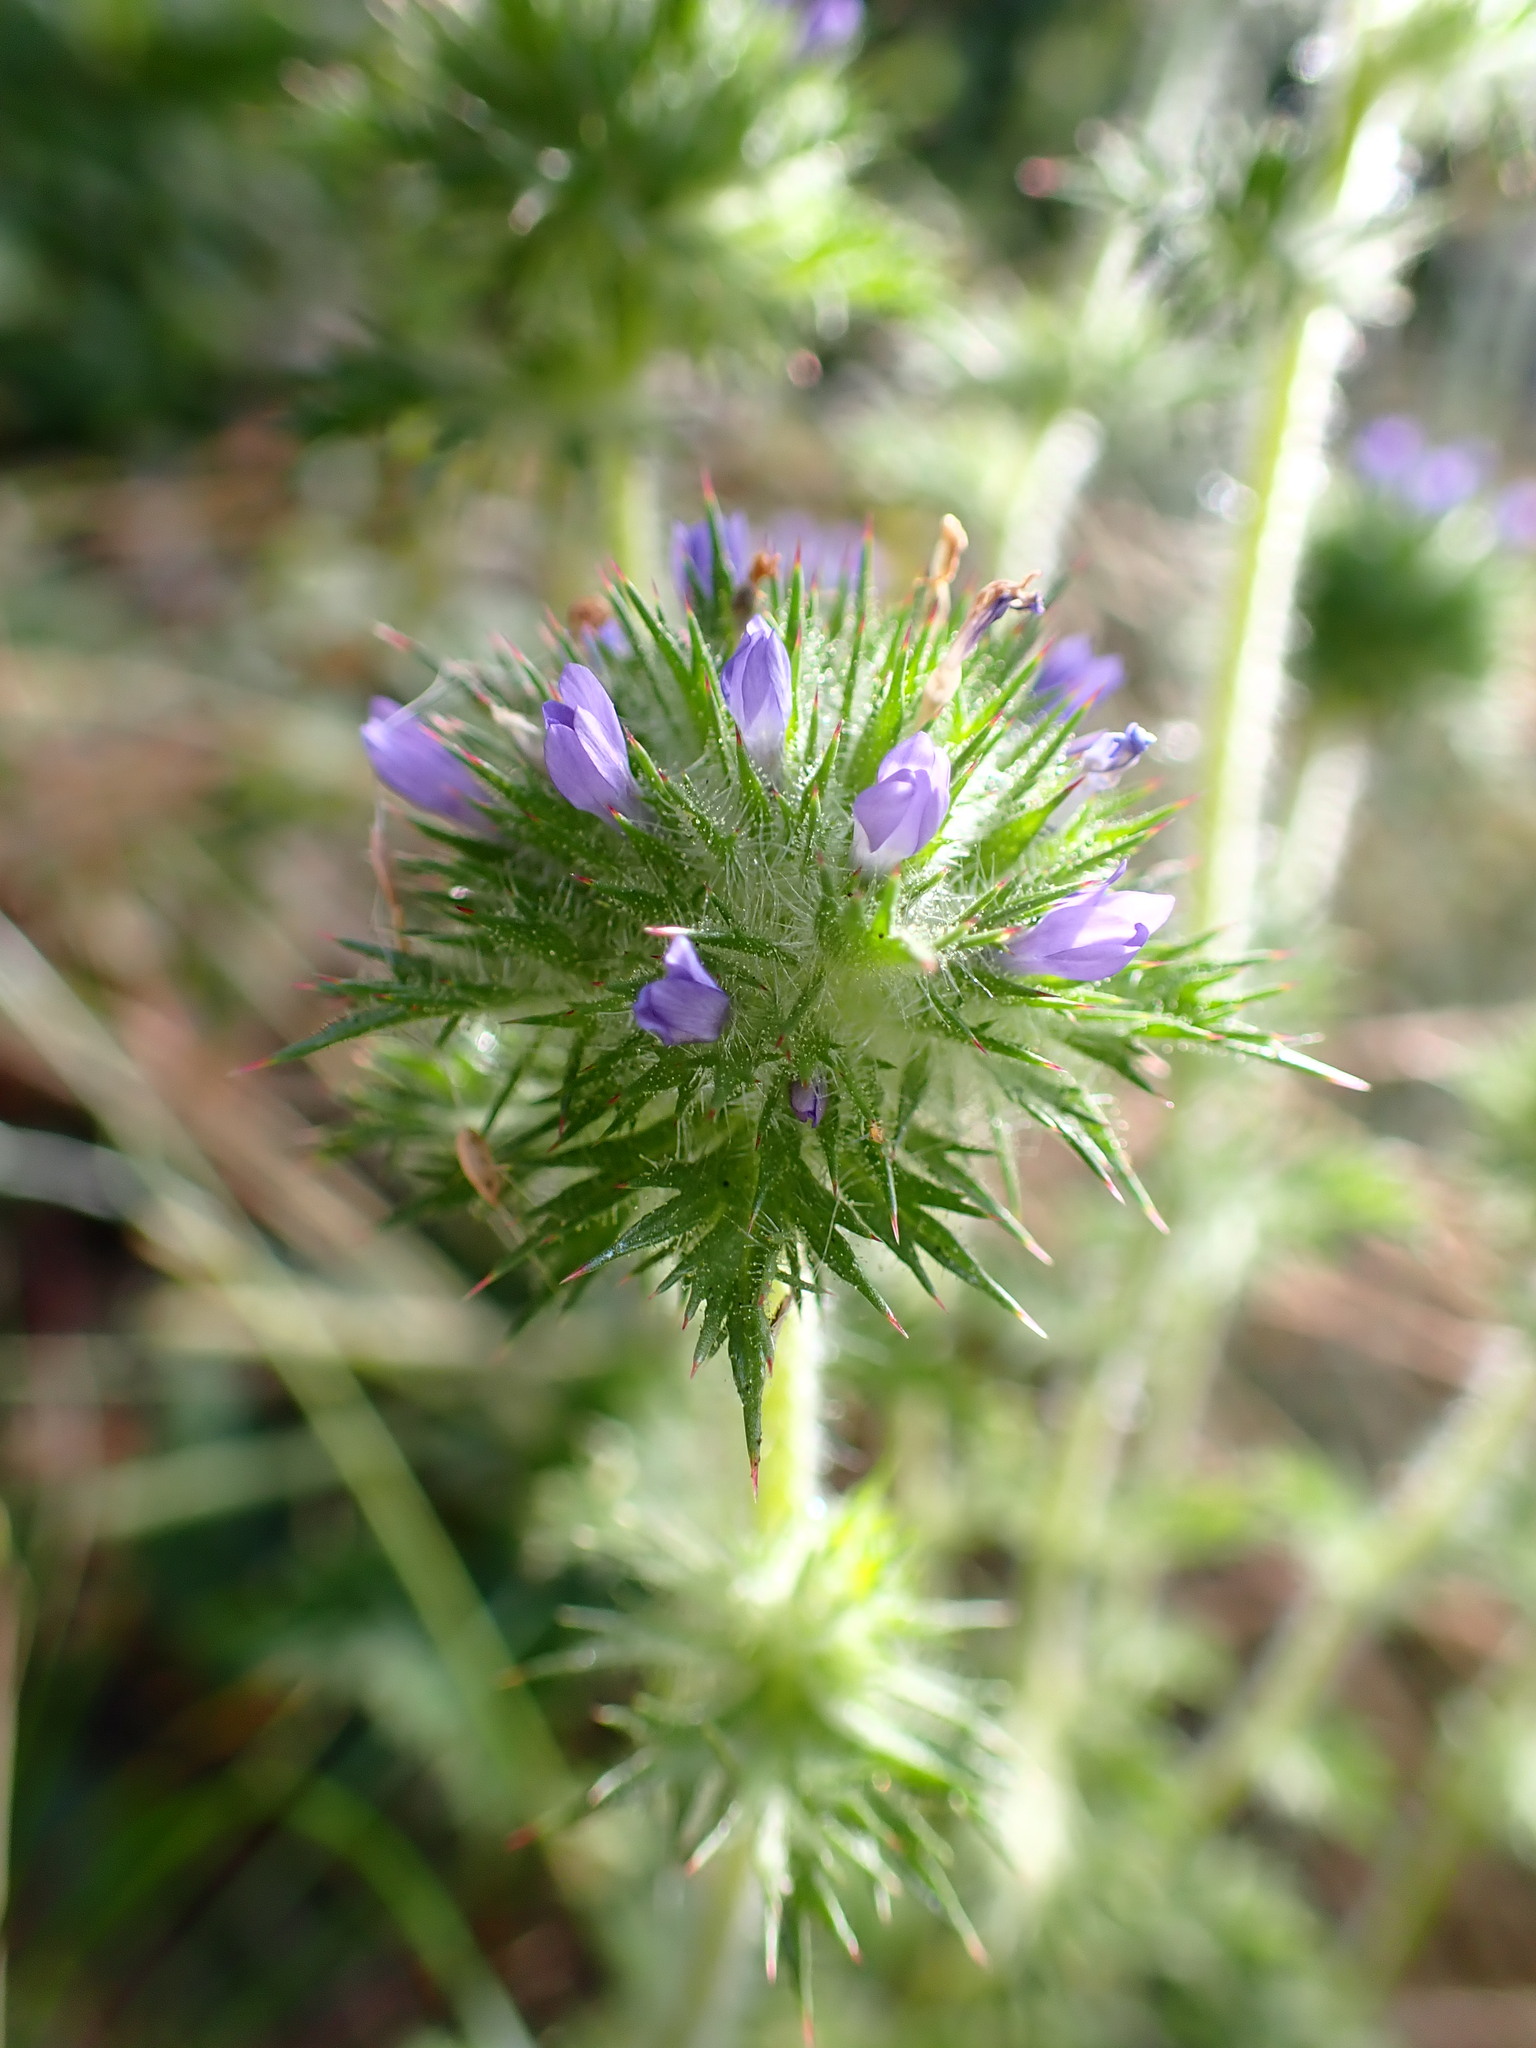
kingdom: Plantae
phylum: Tracheophyta
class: Magnoliopsida
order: Ericales
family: Polemoniaceae
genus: Navarretia
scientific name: Navarretia squarrosa
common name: Skunkweed
